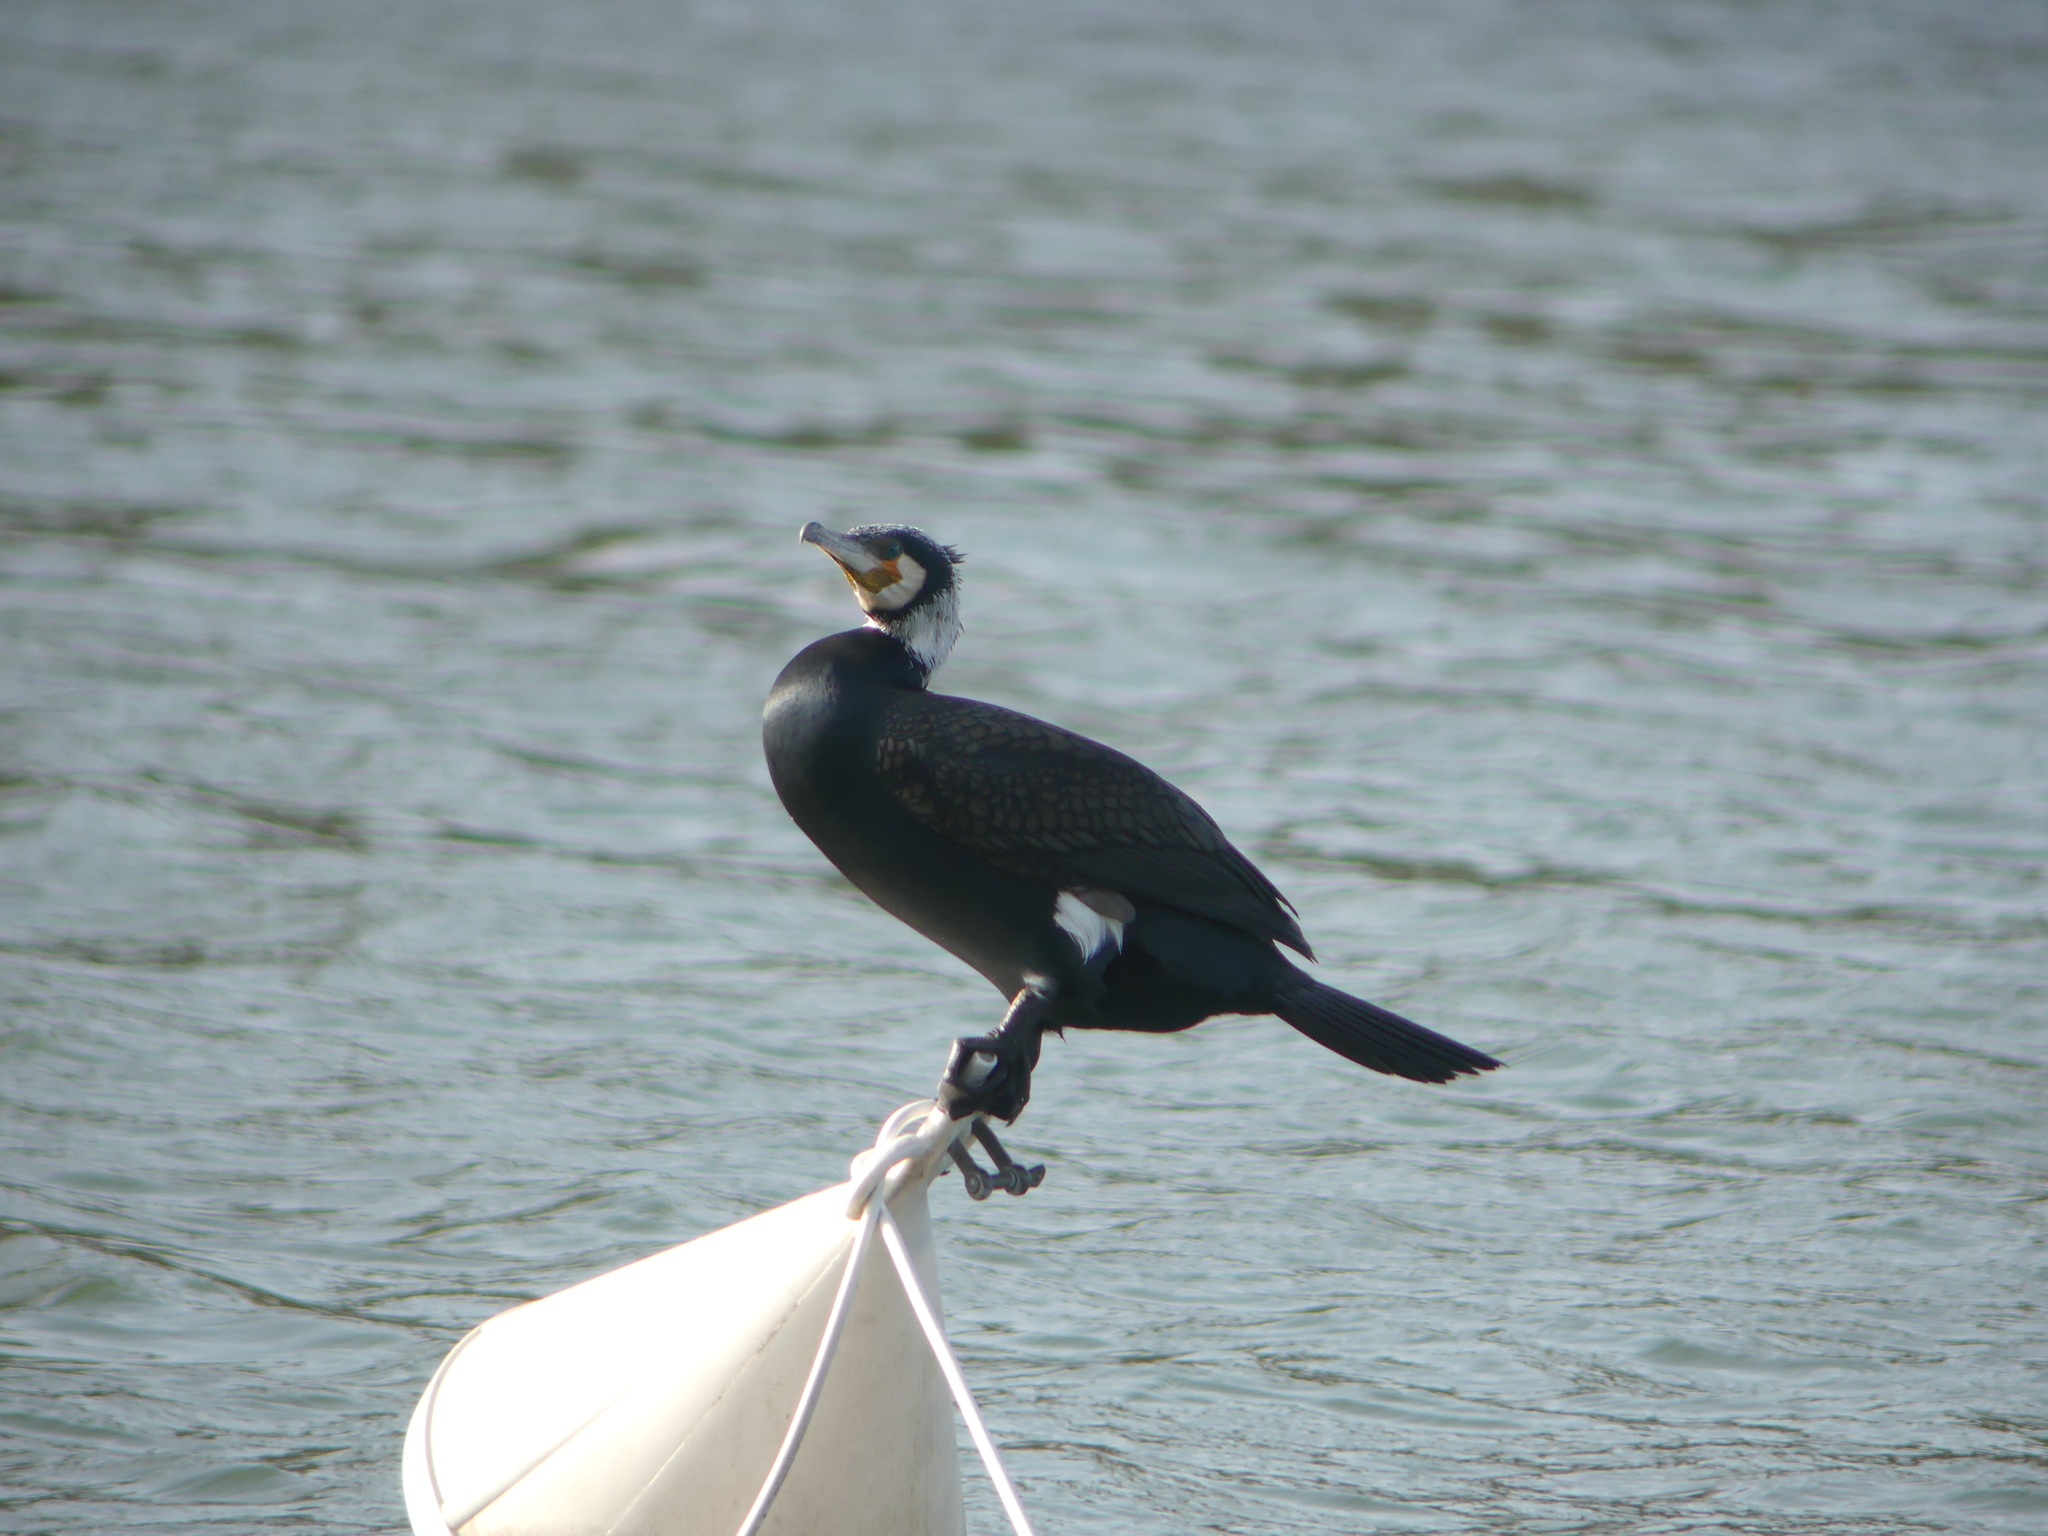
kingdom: Animalia
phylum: Chordata
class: Aves
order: Suliformes
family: Phalacrocoracidae
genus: Phalacrocorax
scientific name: Phalacrocorax carbo
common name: Great cormorant
